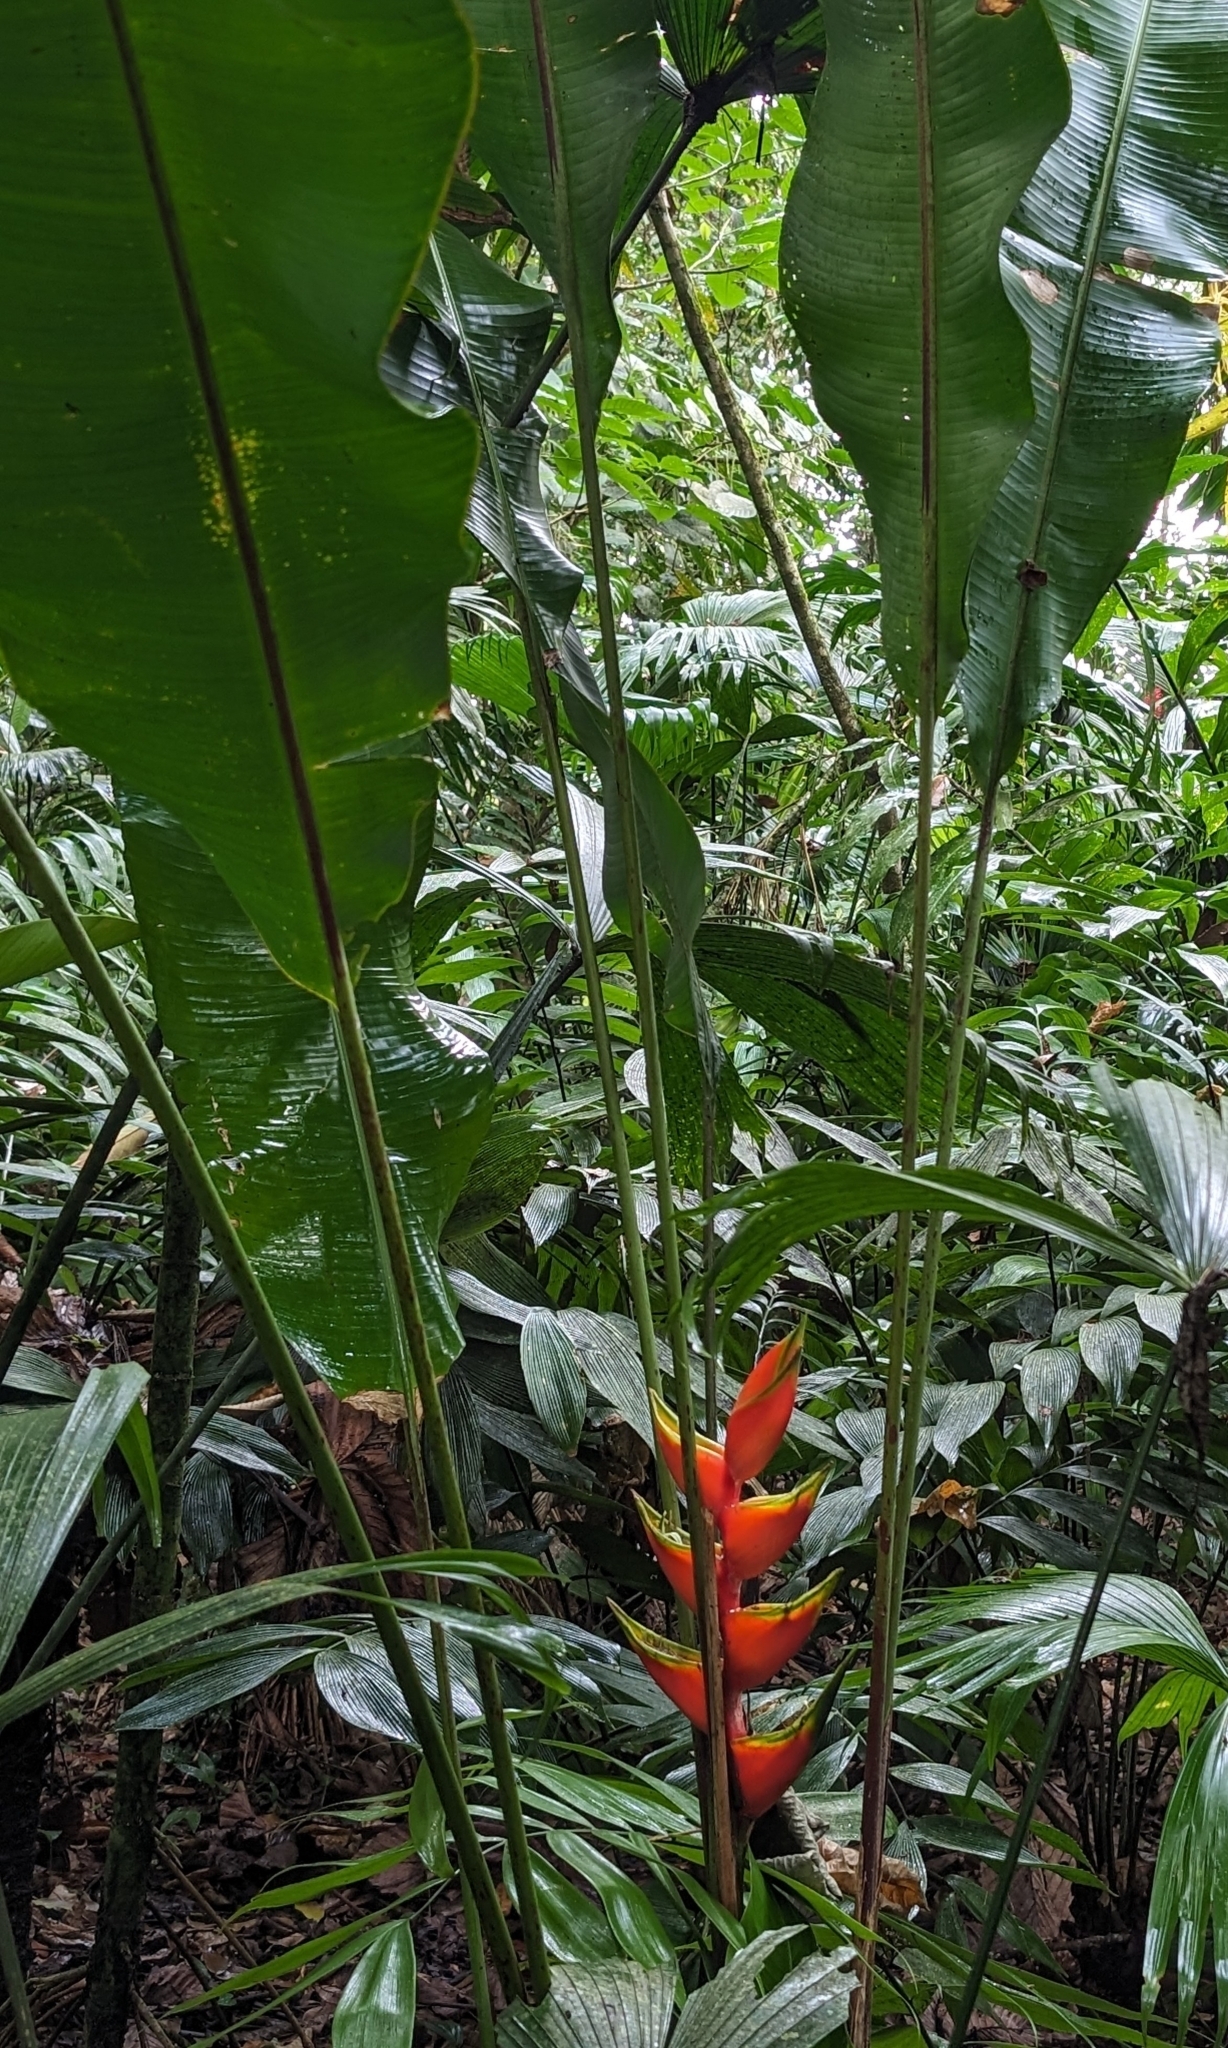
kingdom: Plantae
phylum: Tracheophyta
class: Liliopsida
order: Zingiberales
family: Heliconiaceae
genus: Heliconia
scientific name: Heliconia bihai
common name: Macaw flower
